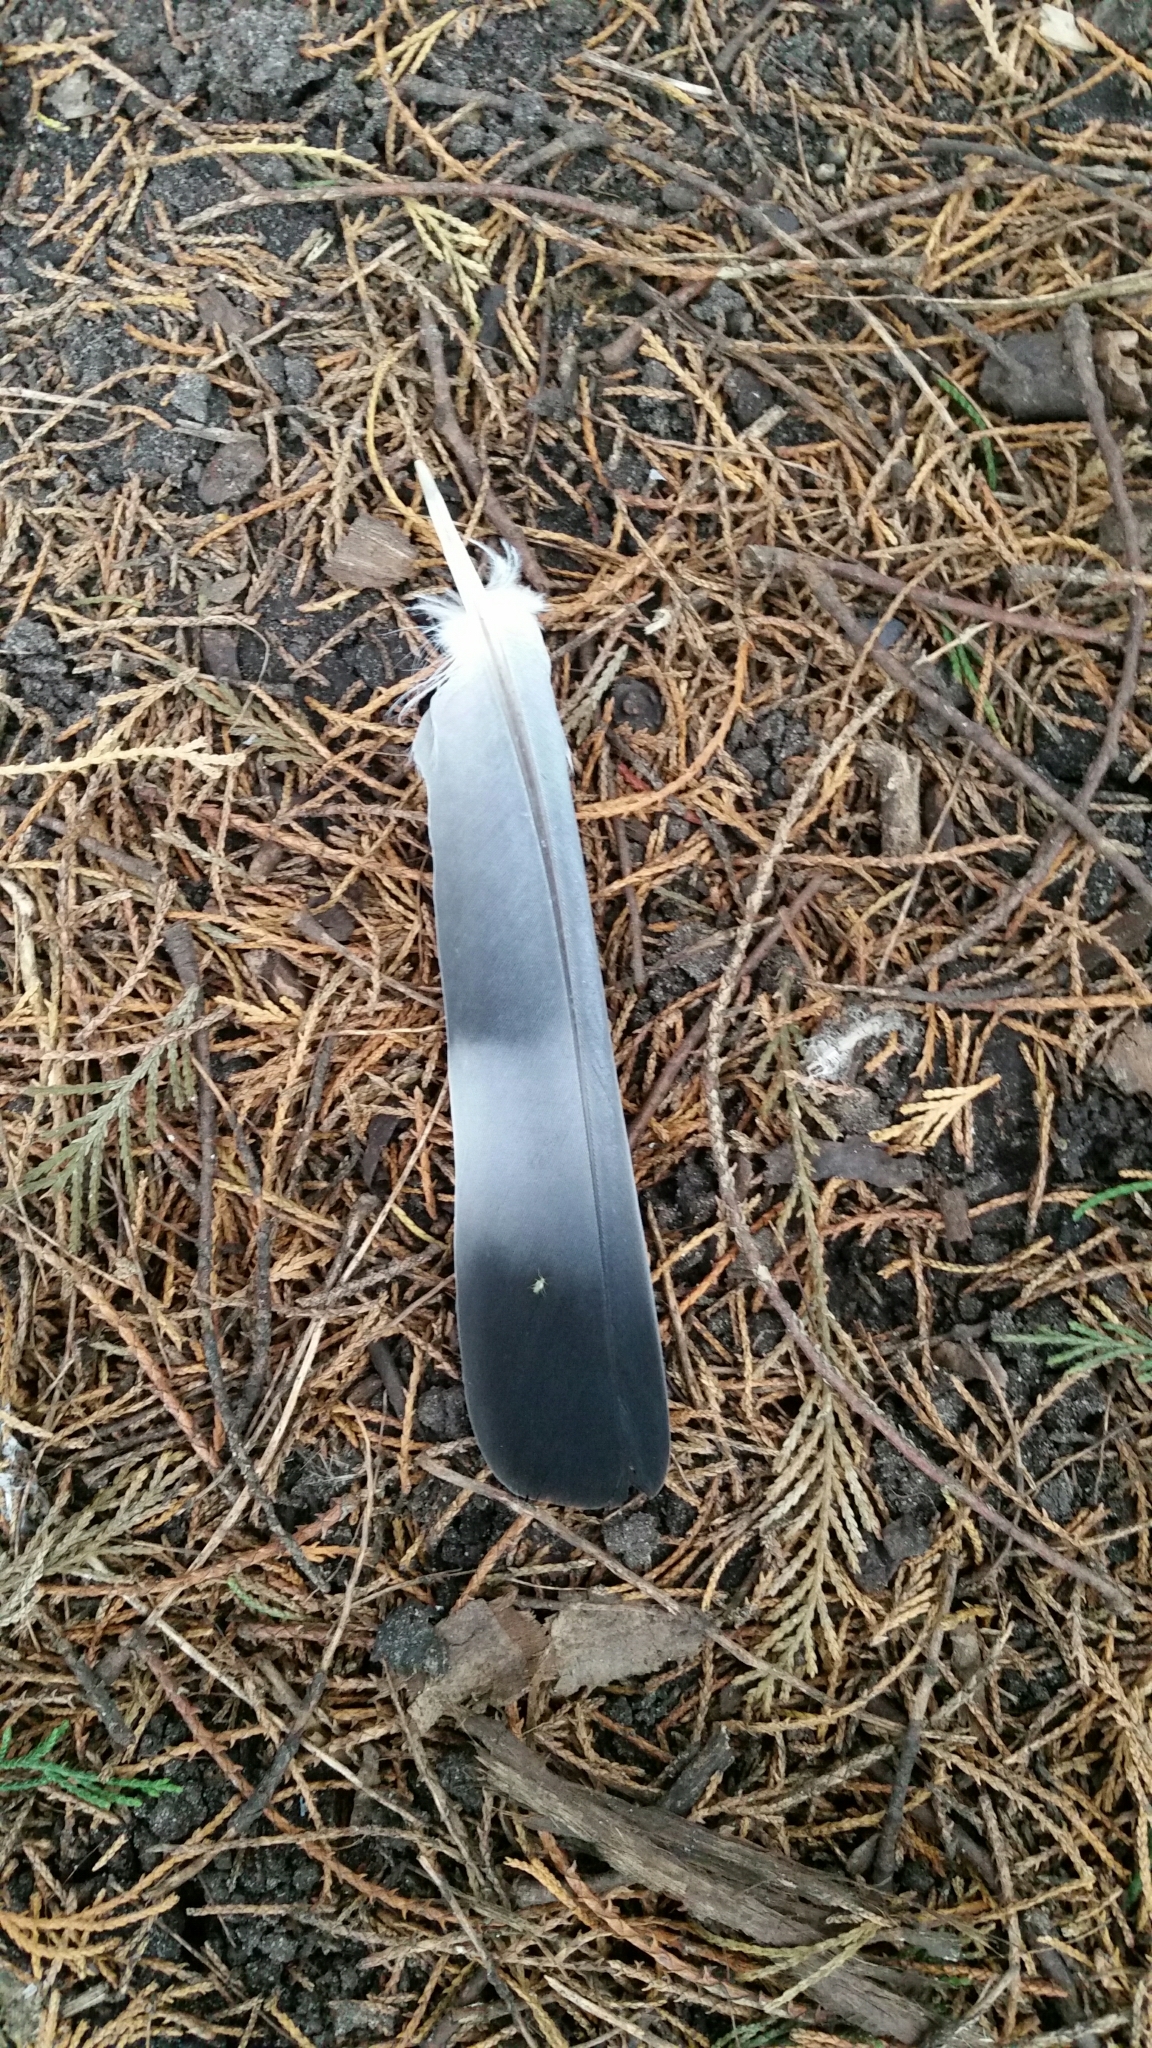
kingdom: Animalia
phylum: Chordata
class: Aves
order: Columbiformes
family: Columbidae
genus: Columba
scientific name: Columba palumbus
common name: Common wood pigeon
